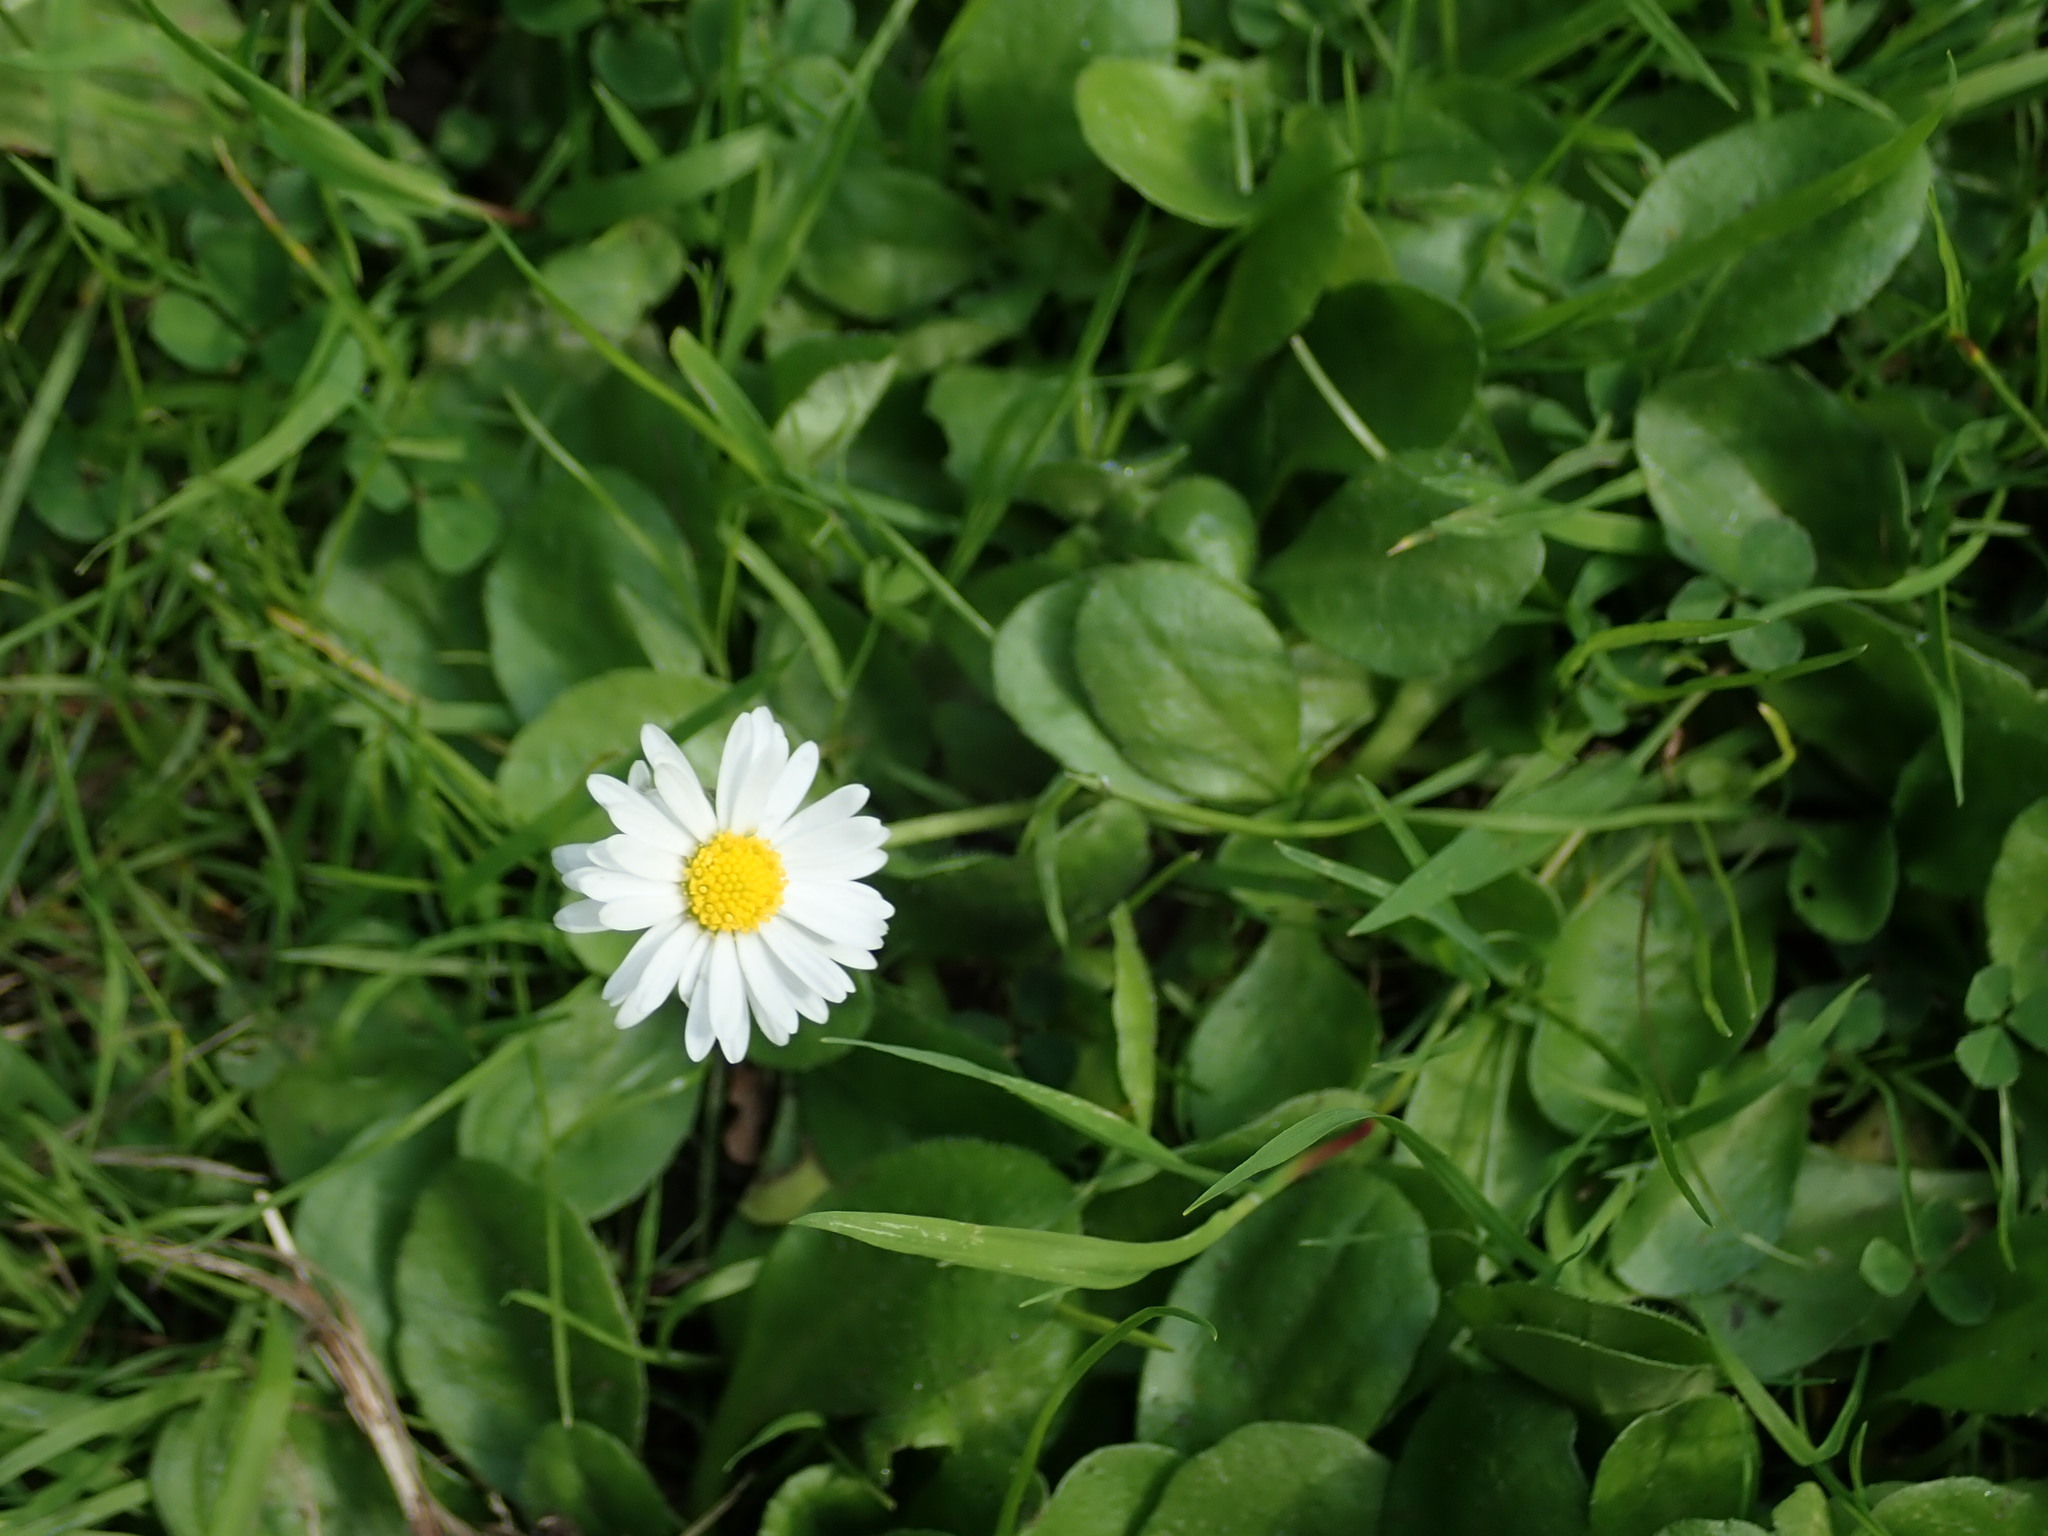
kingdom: Plantae
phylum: Tracheophyta
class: Magnoliopsida
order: Asterales
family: Asteraceae
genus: Bellis
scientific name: Bellis perennis
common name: Lawndaisy
